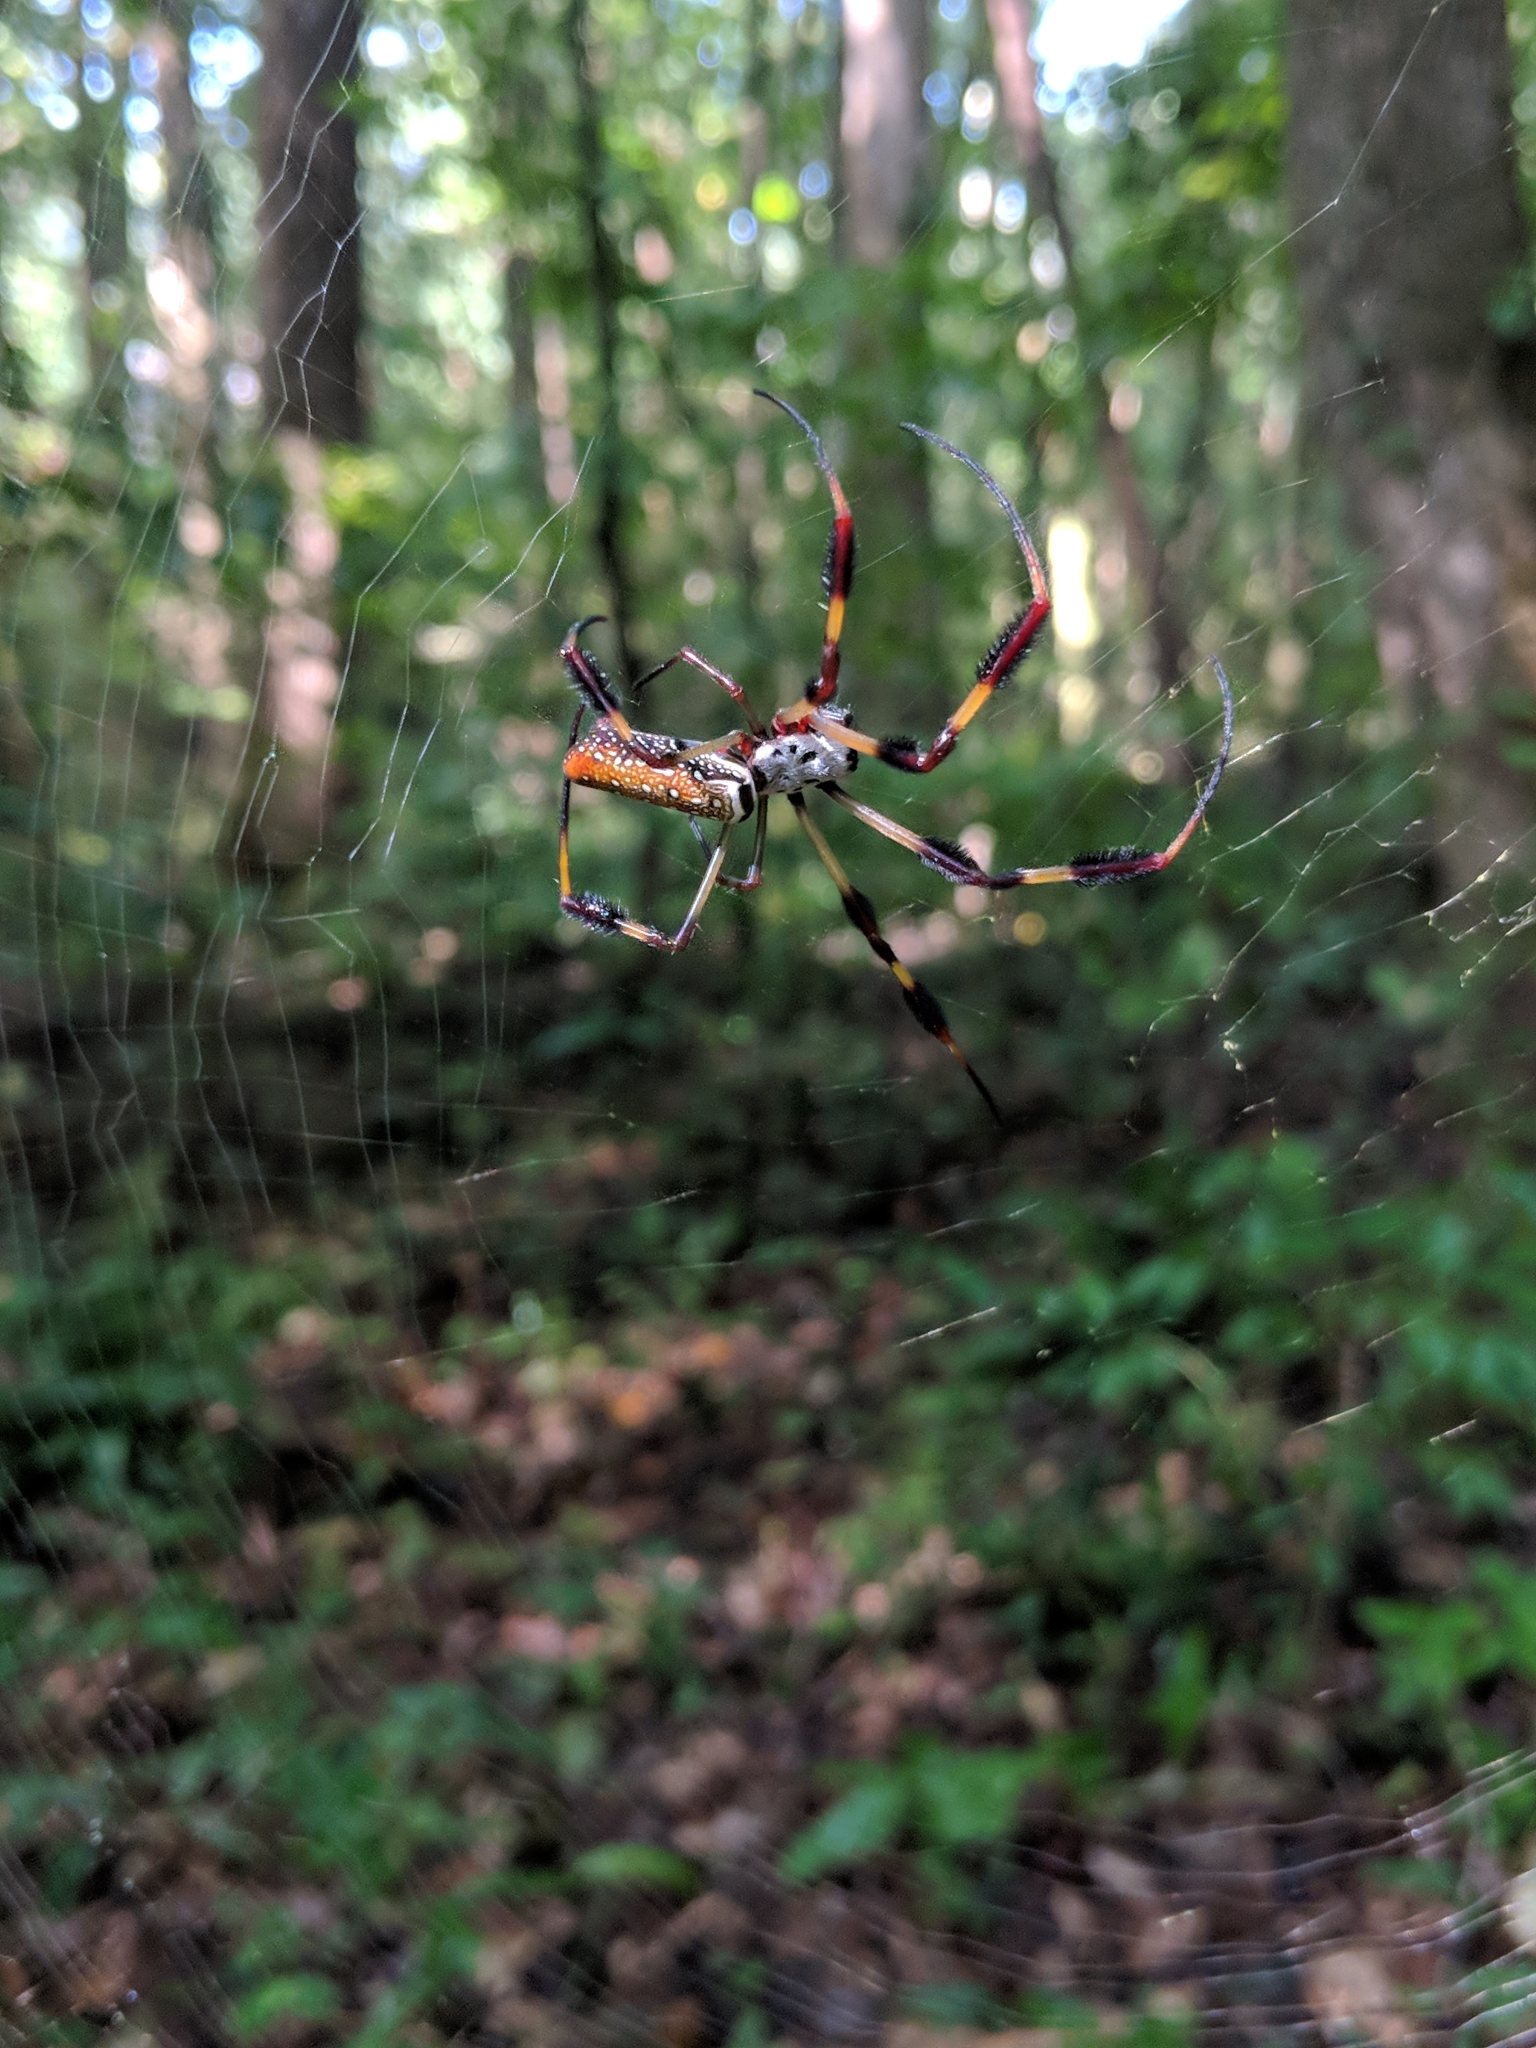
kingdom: Animalia
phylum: Arthropoda
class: Arachnida
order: Araneae
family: Araneidae
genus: Trichonephila
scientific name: Trichonephila clavipes
